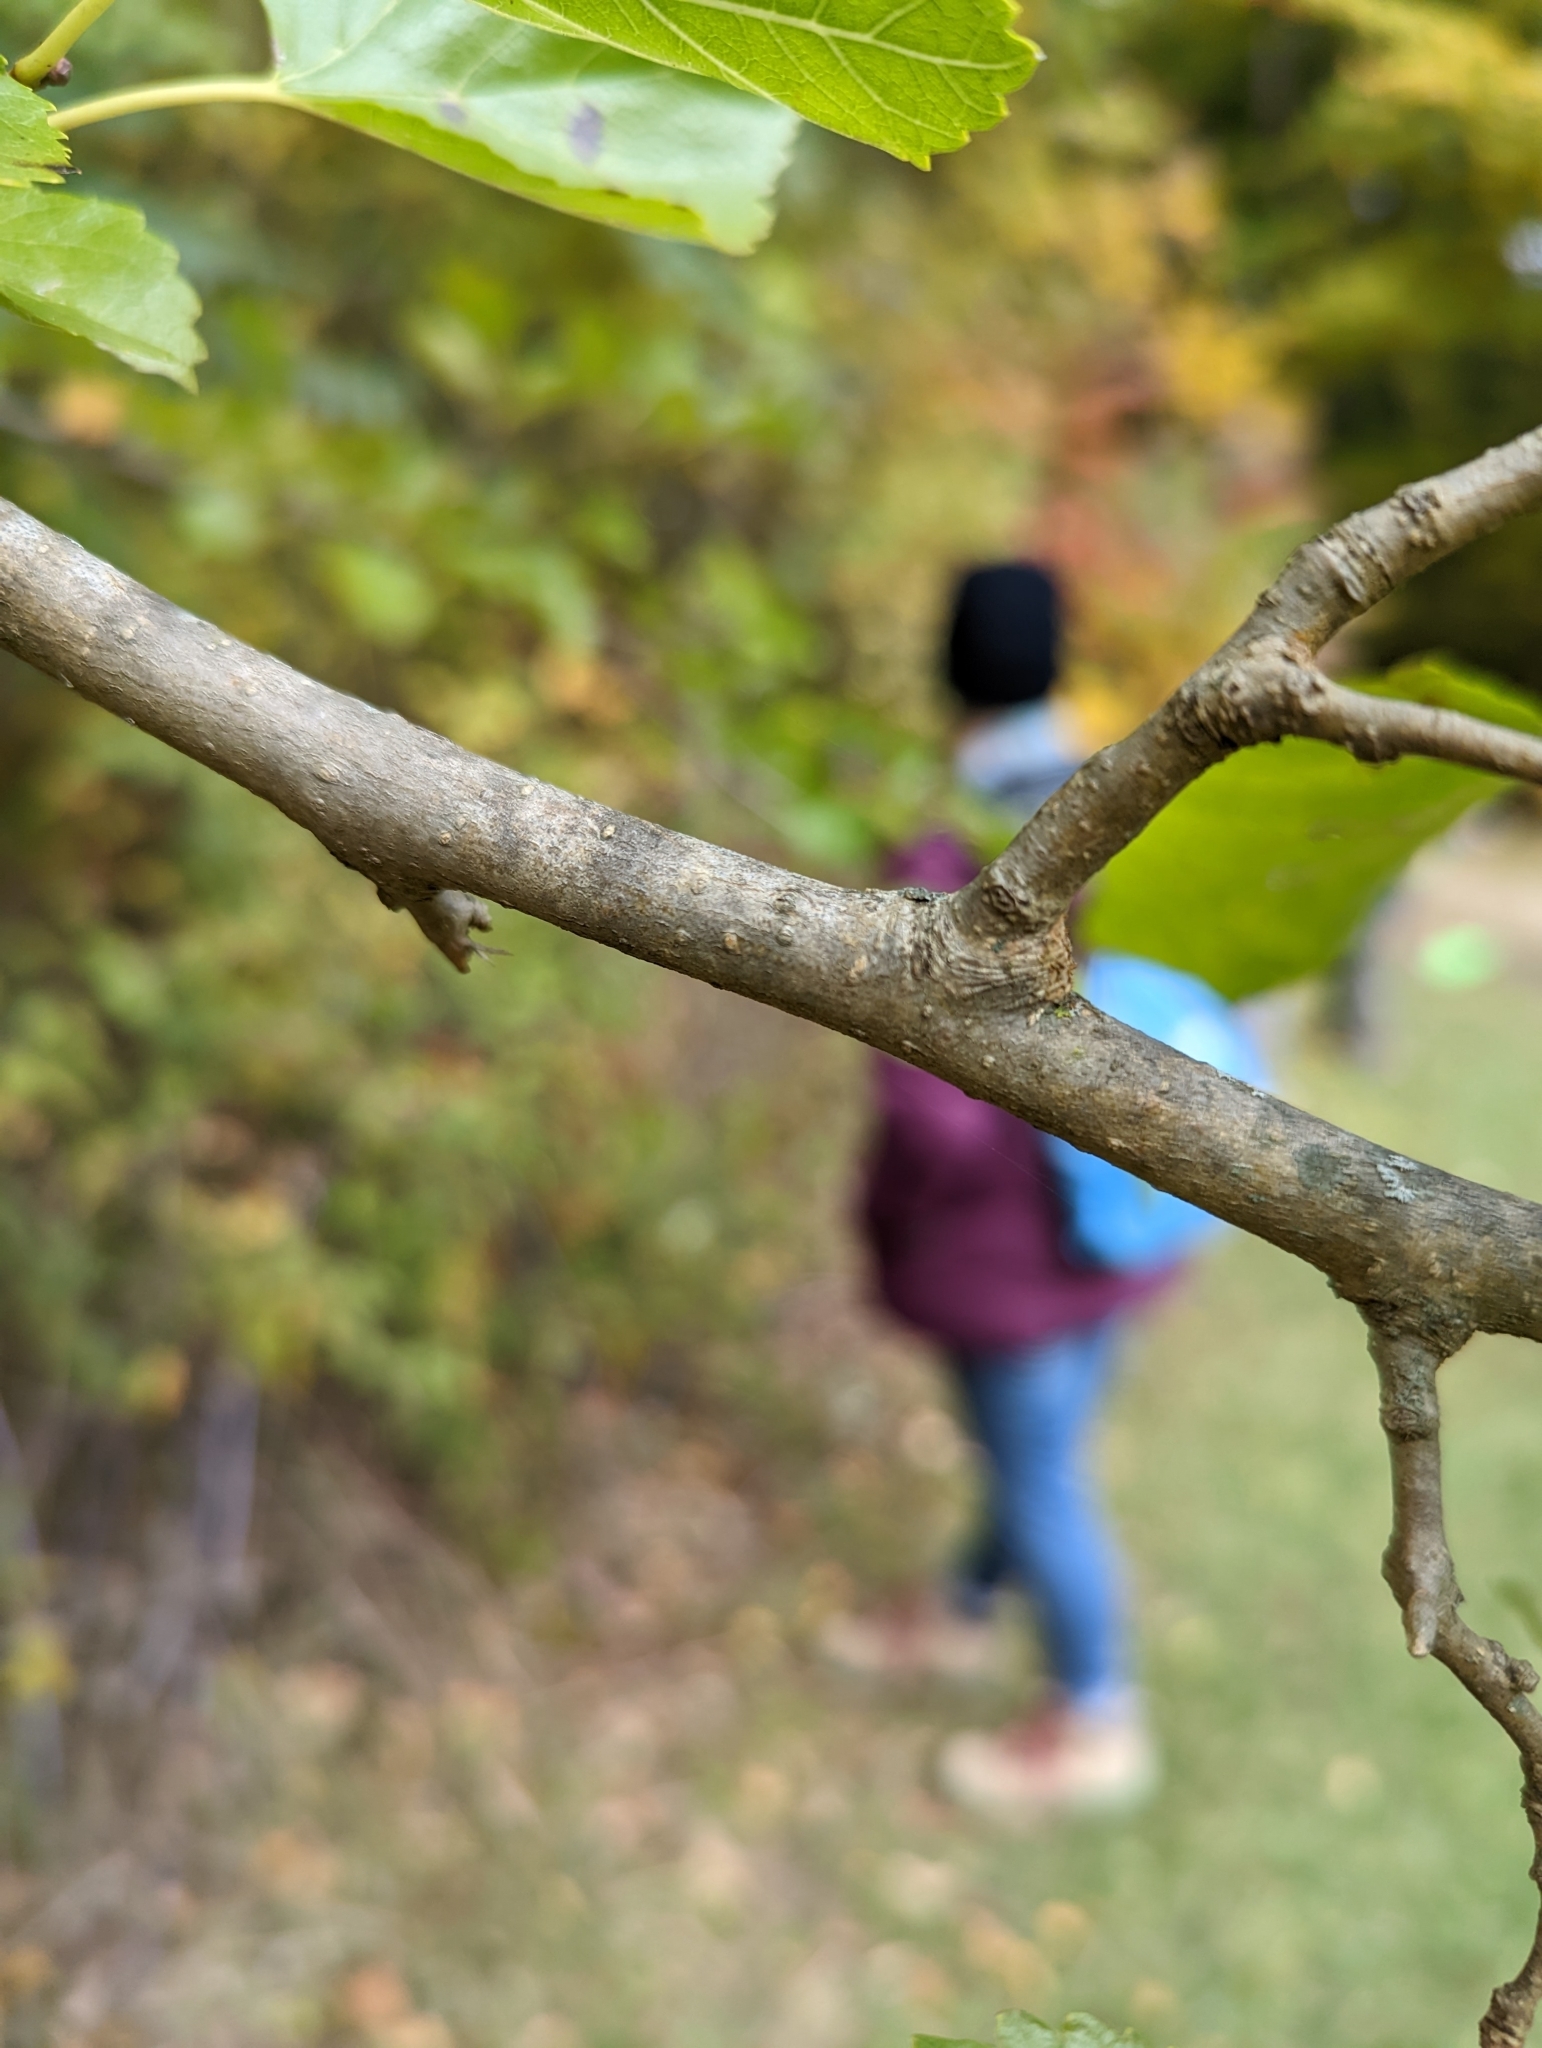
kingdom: Plantae
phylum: Tracheophyta
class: Magnoliopsida
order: Rosales
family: Moraceae
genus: Morus
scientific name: Morus alba
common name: White mulberry
